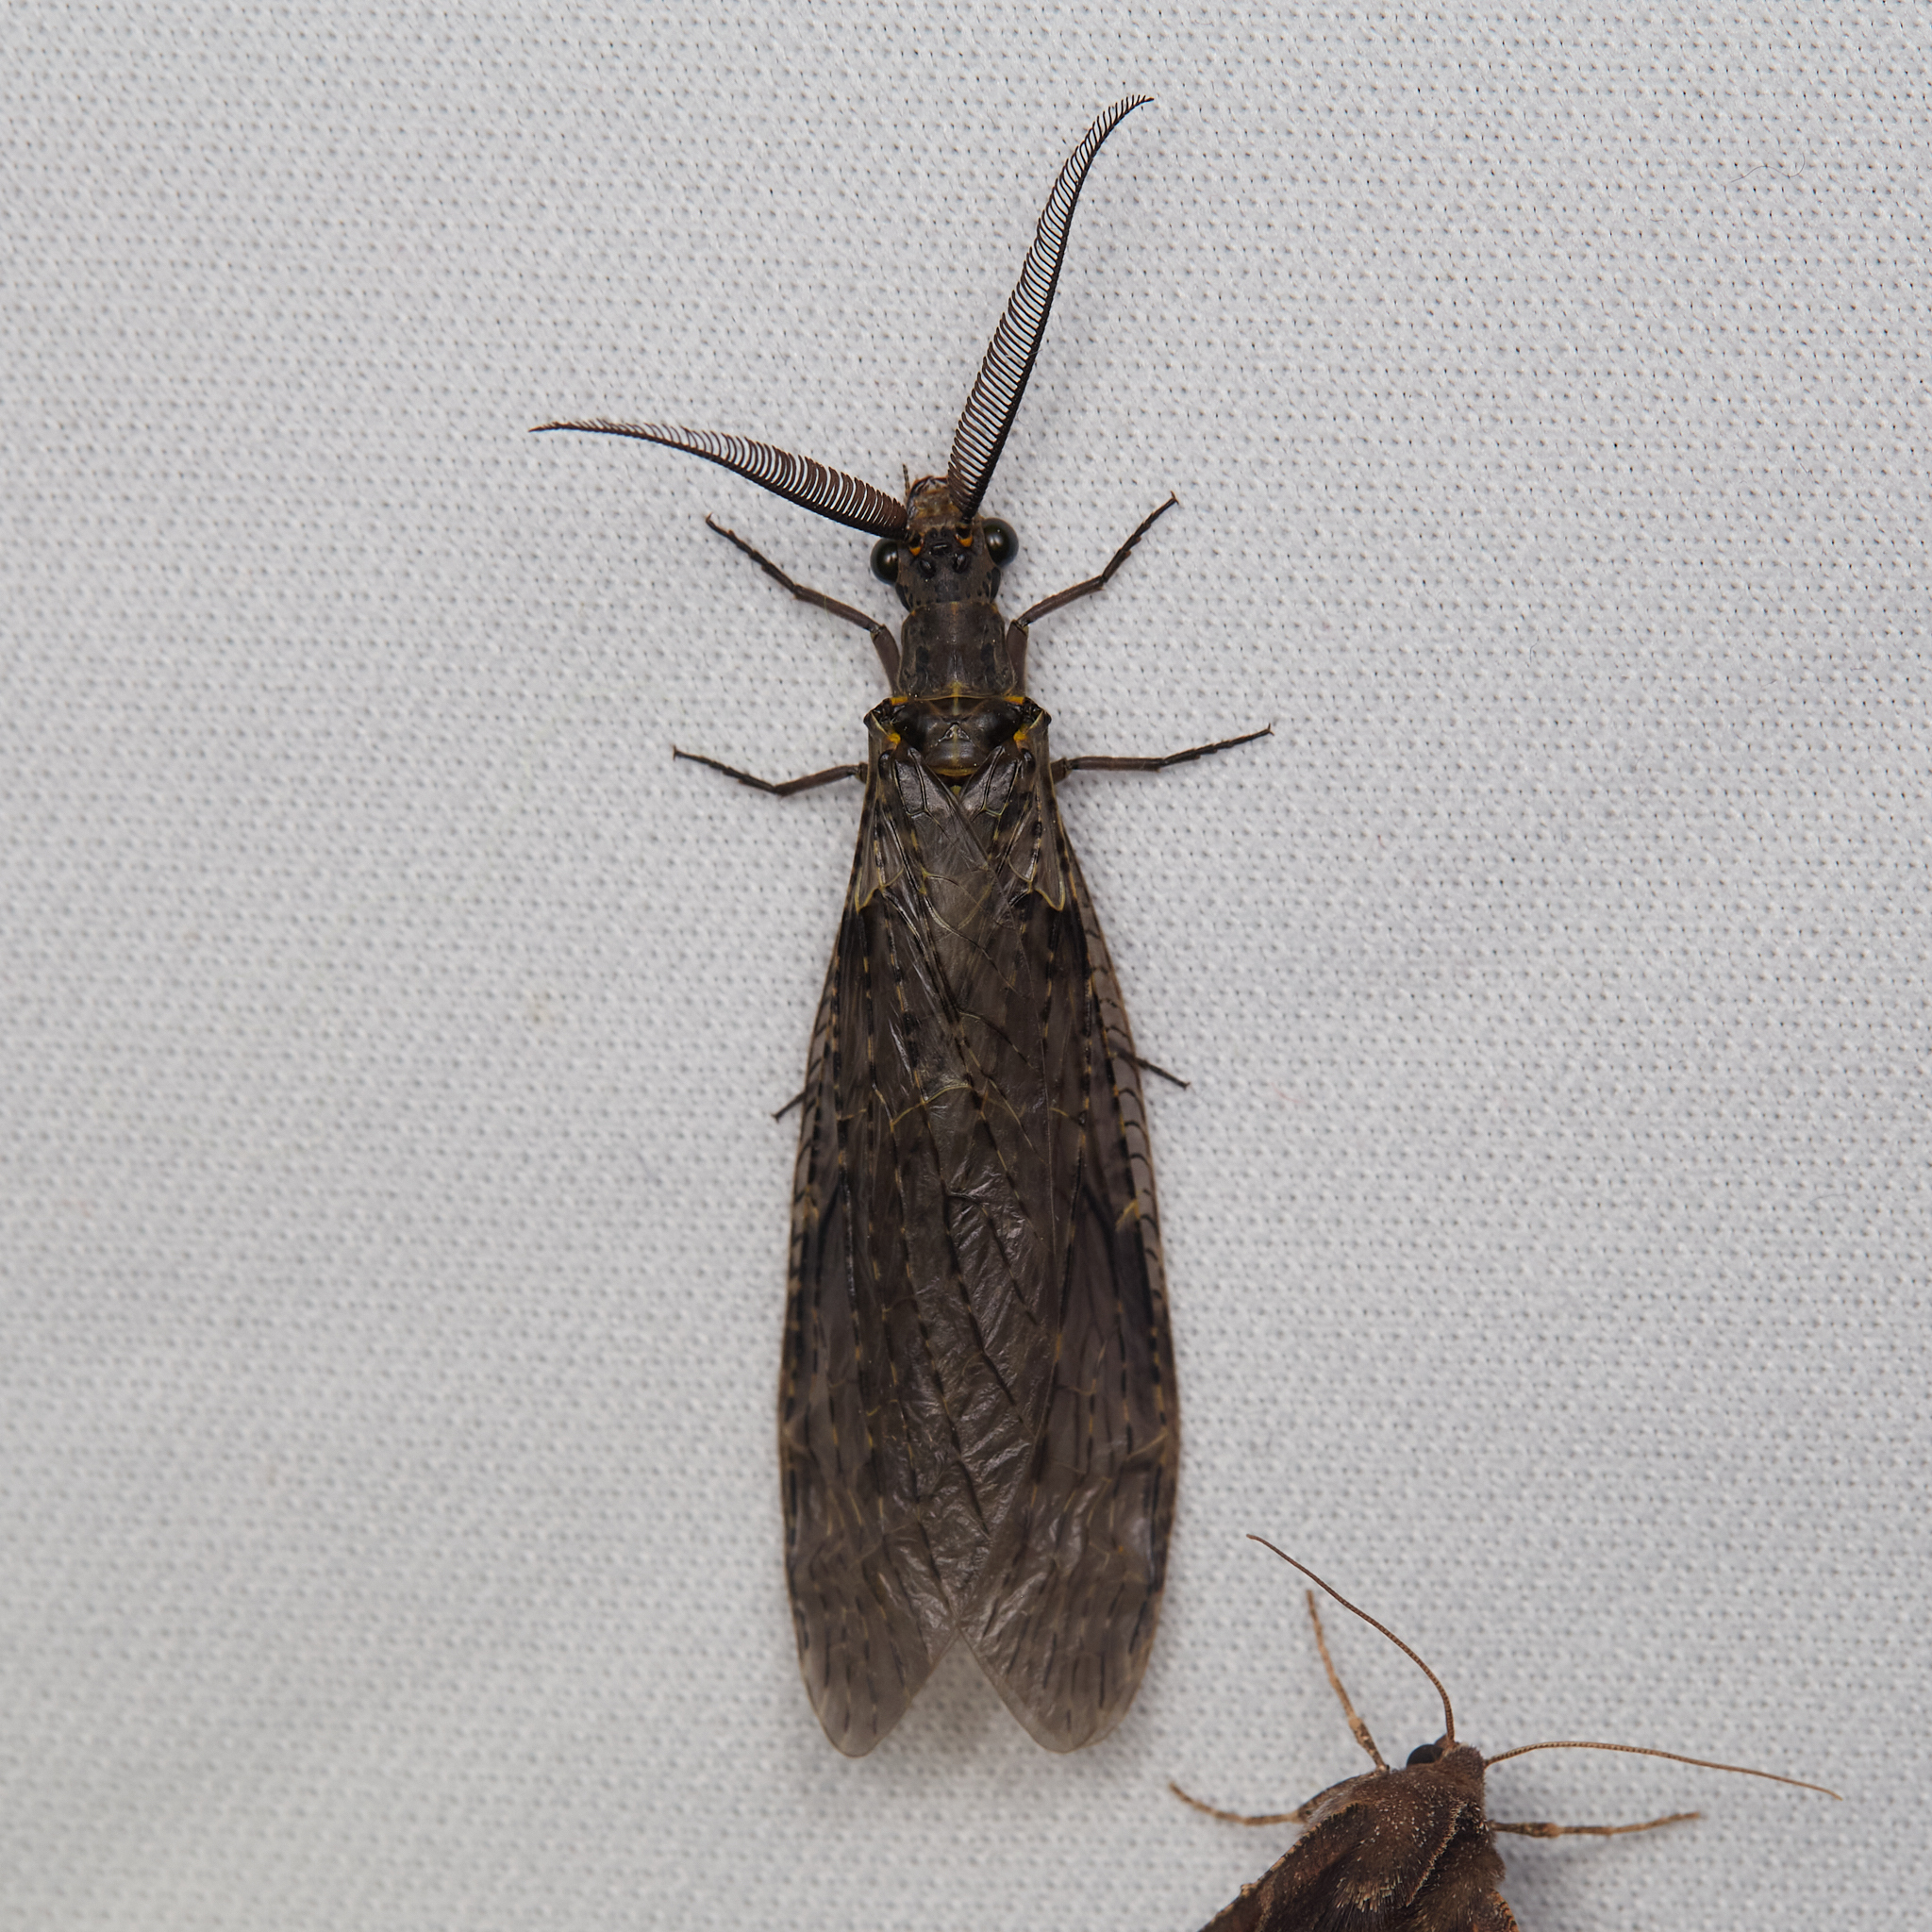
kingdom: Animalia
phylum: Arthropoda
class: Insecta
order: Megaloptera
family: Corydalidae
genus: Chauliodes
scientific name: Chauliodes rastricornis
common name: Spring fishfly
